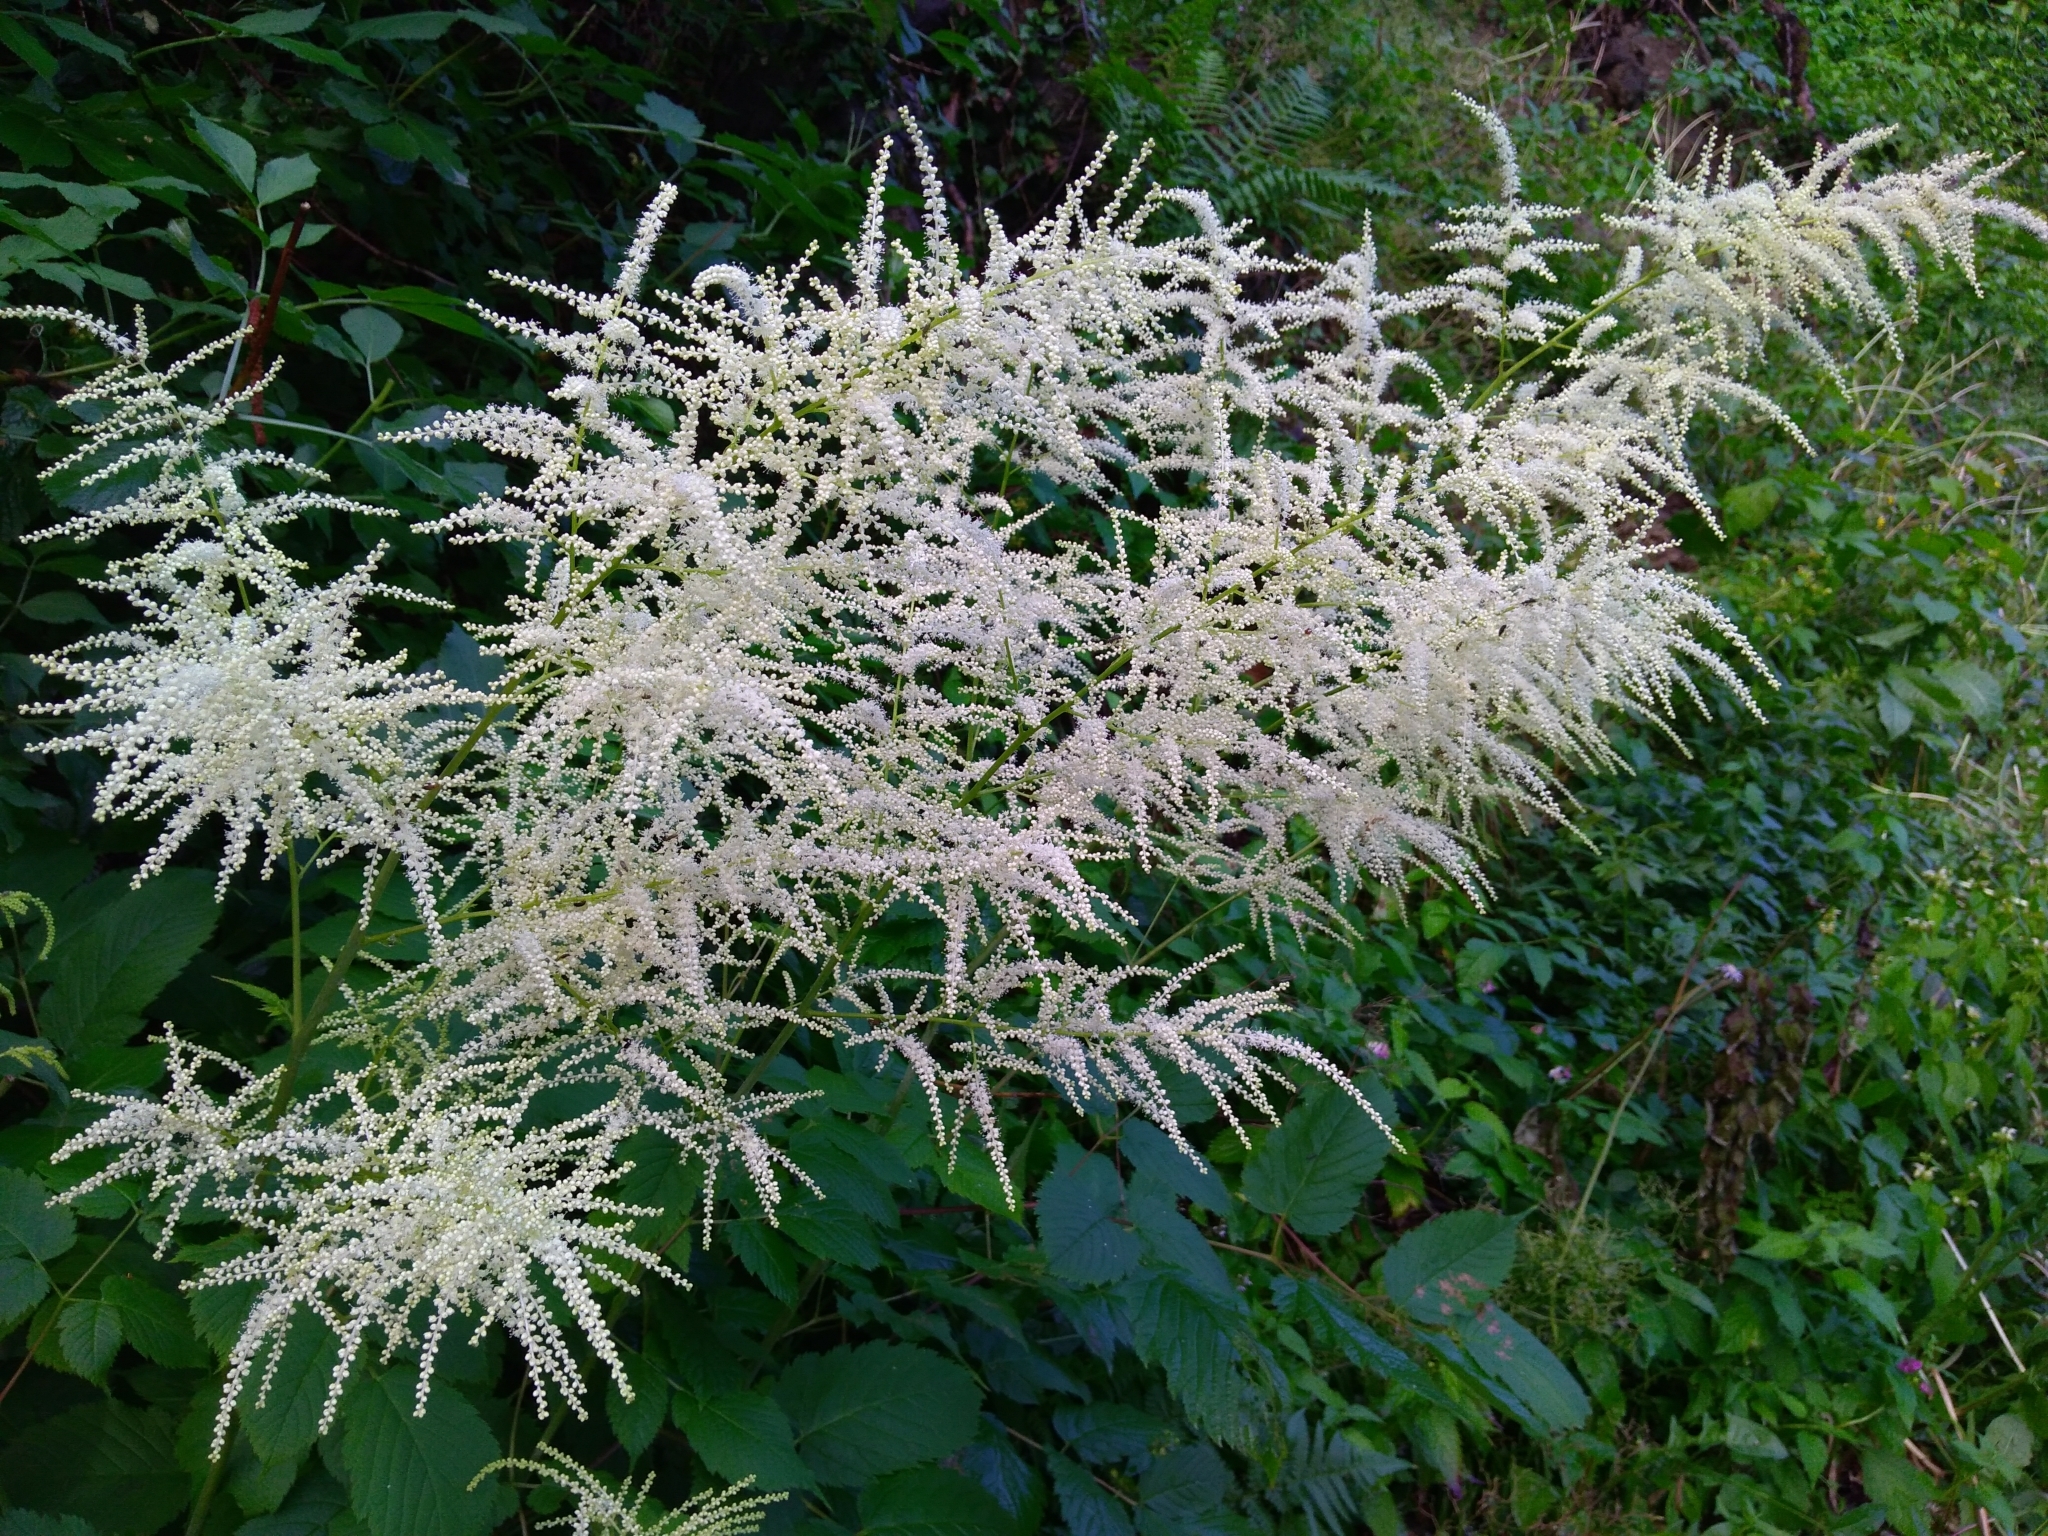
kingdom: Plantae
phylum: Tracheophyta
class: Magnoliopsida
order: Rosales
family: Rosaceae
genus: Aruncus
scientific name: Aruncus dioicus
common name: Buck's-beard
